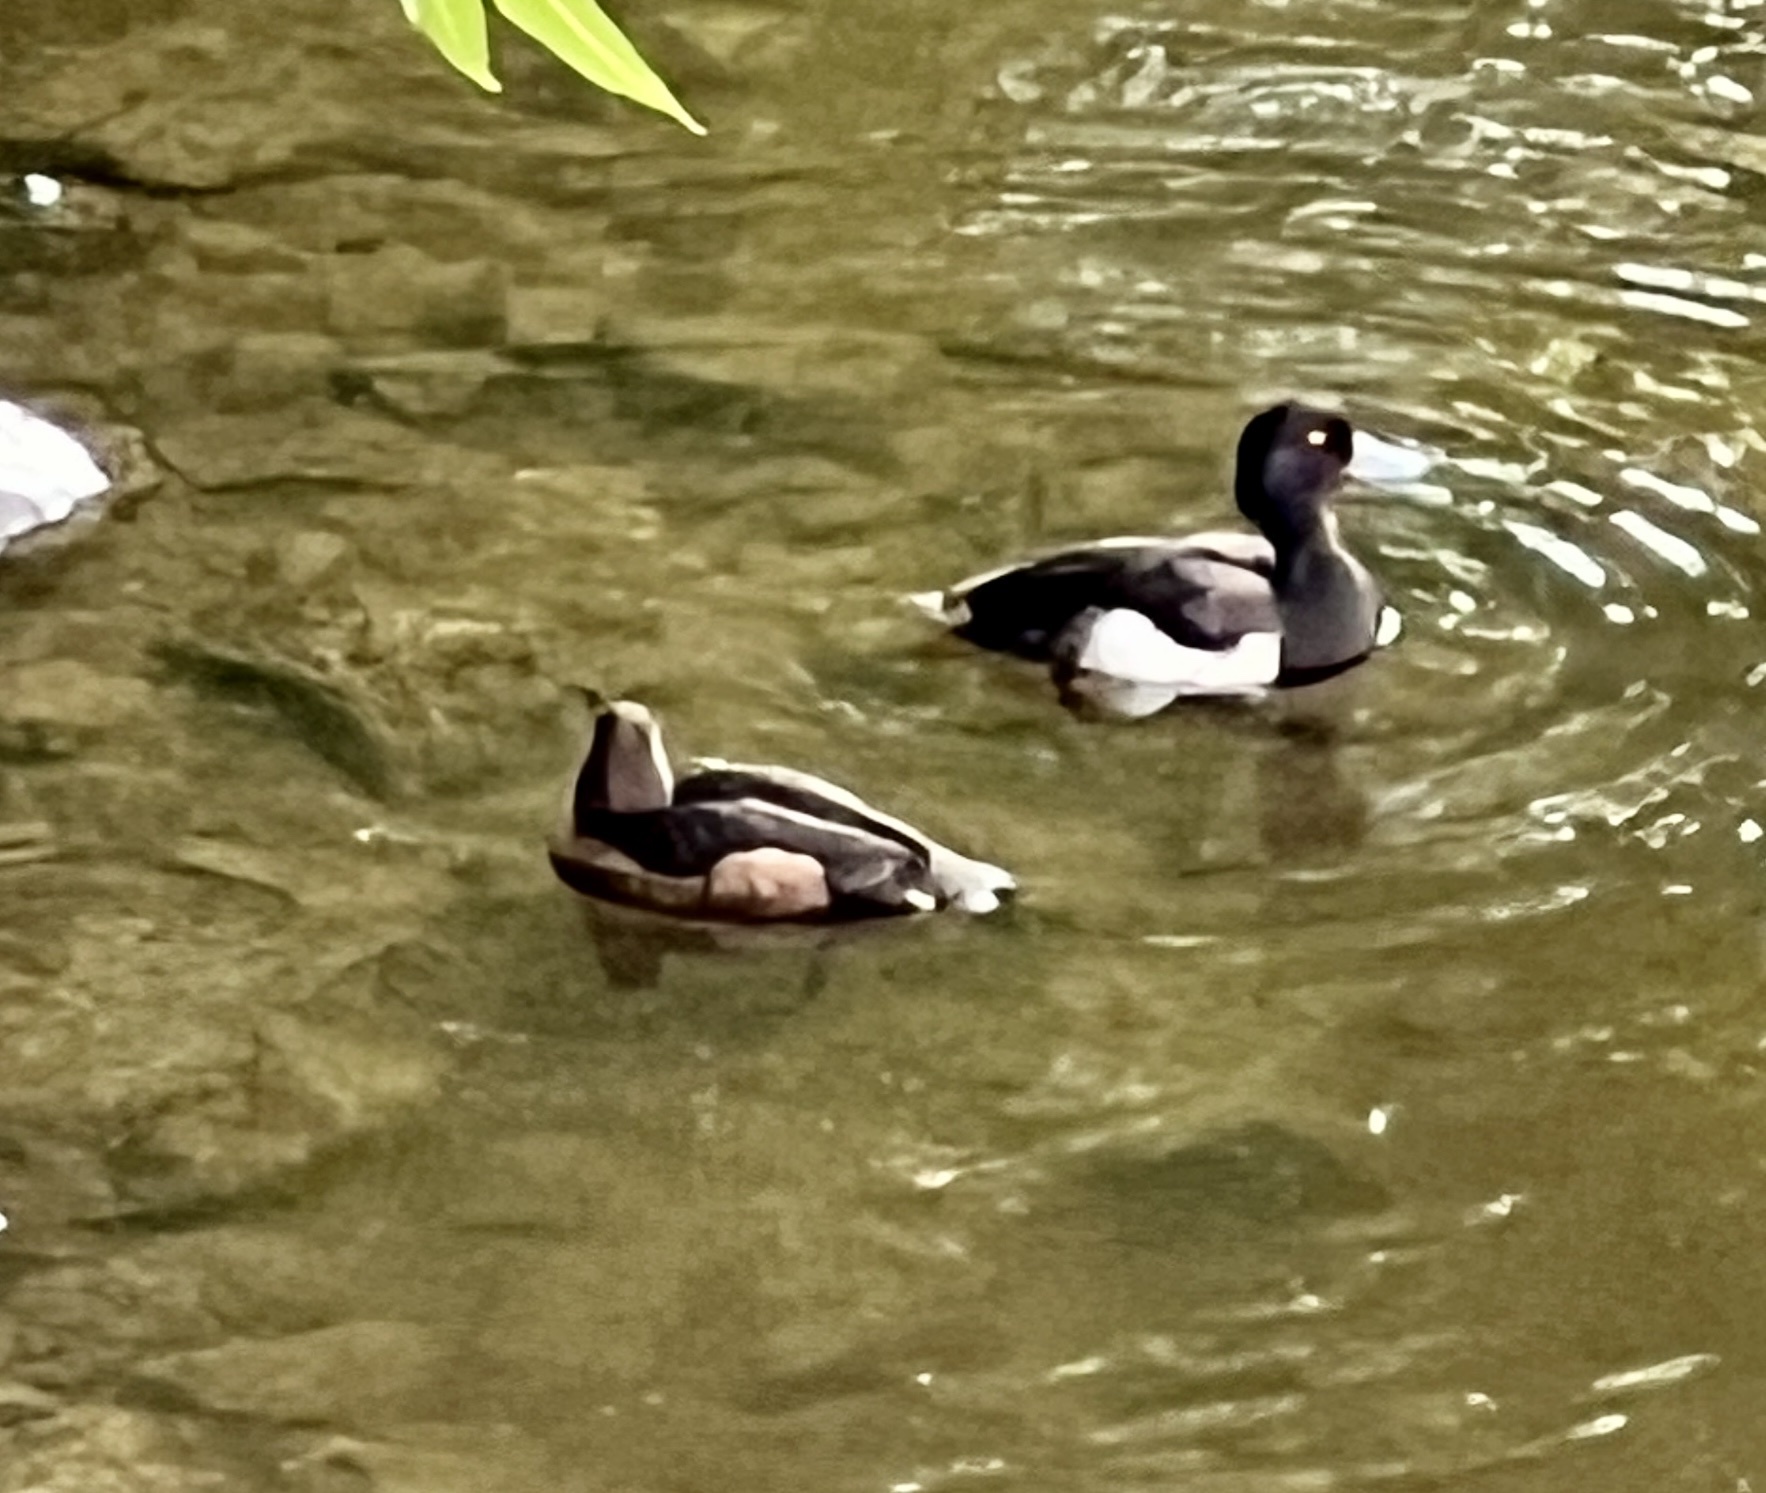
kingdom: Animalia
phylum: Chordata
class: Aves
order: Anseriformes
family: Anatidae
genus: Aythya
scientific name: Aythya fuligula
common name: Tufted duck
